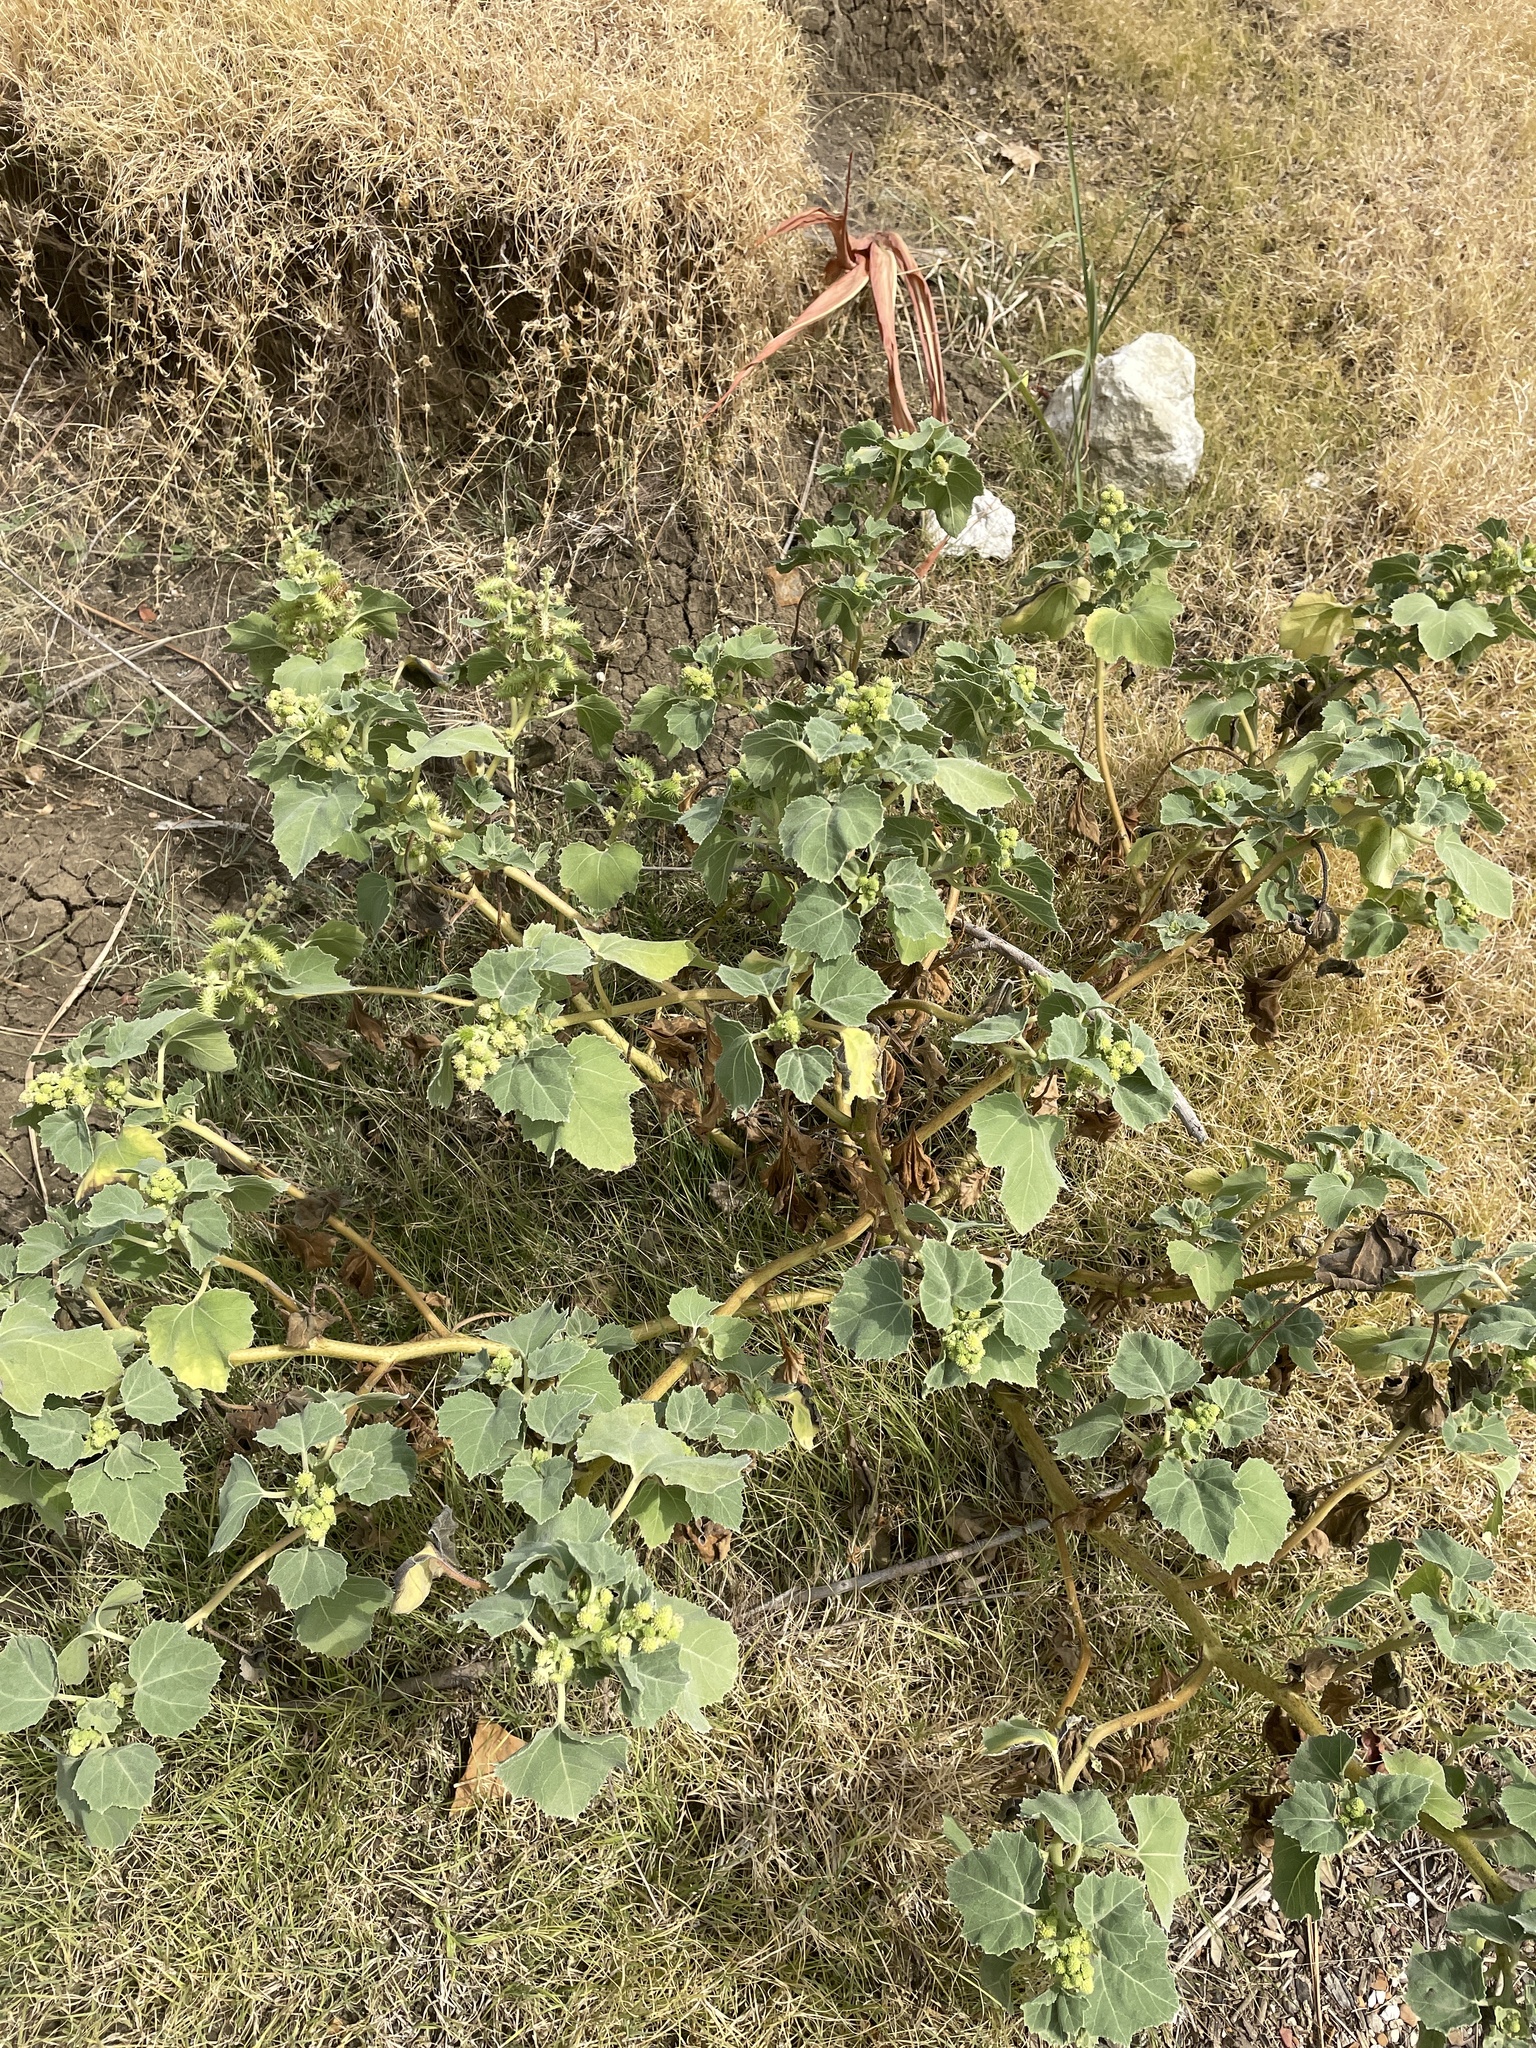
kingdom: Plantae
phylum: Tracheophyta
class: Magnoliopsida
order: Asterales
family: Asteraceae
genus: Xanthium
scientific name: Xanthium strumarium
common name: Rough cocklebur
